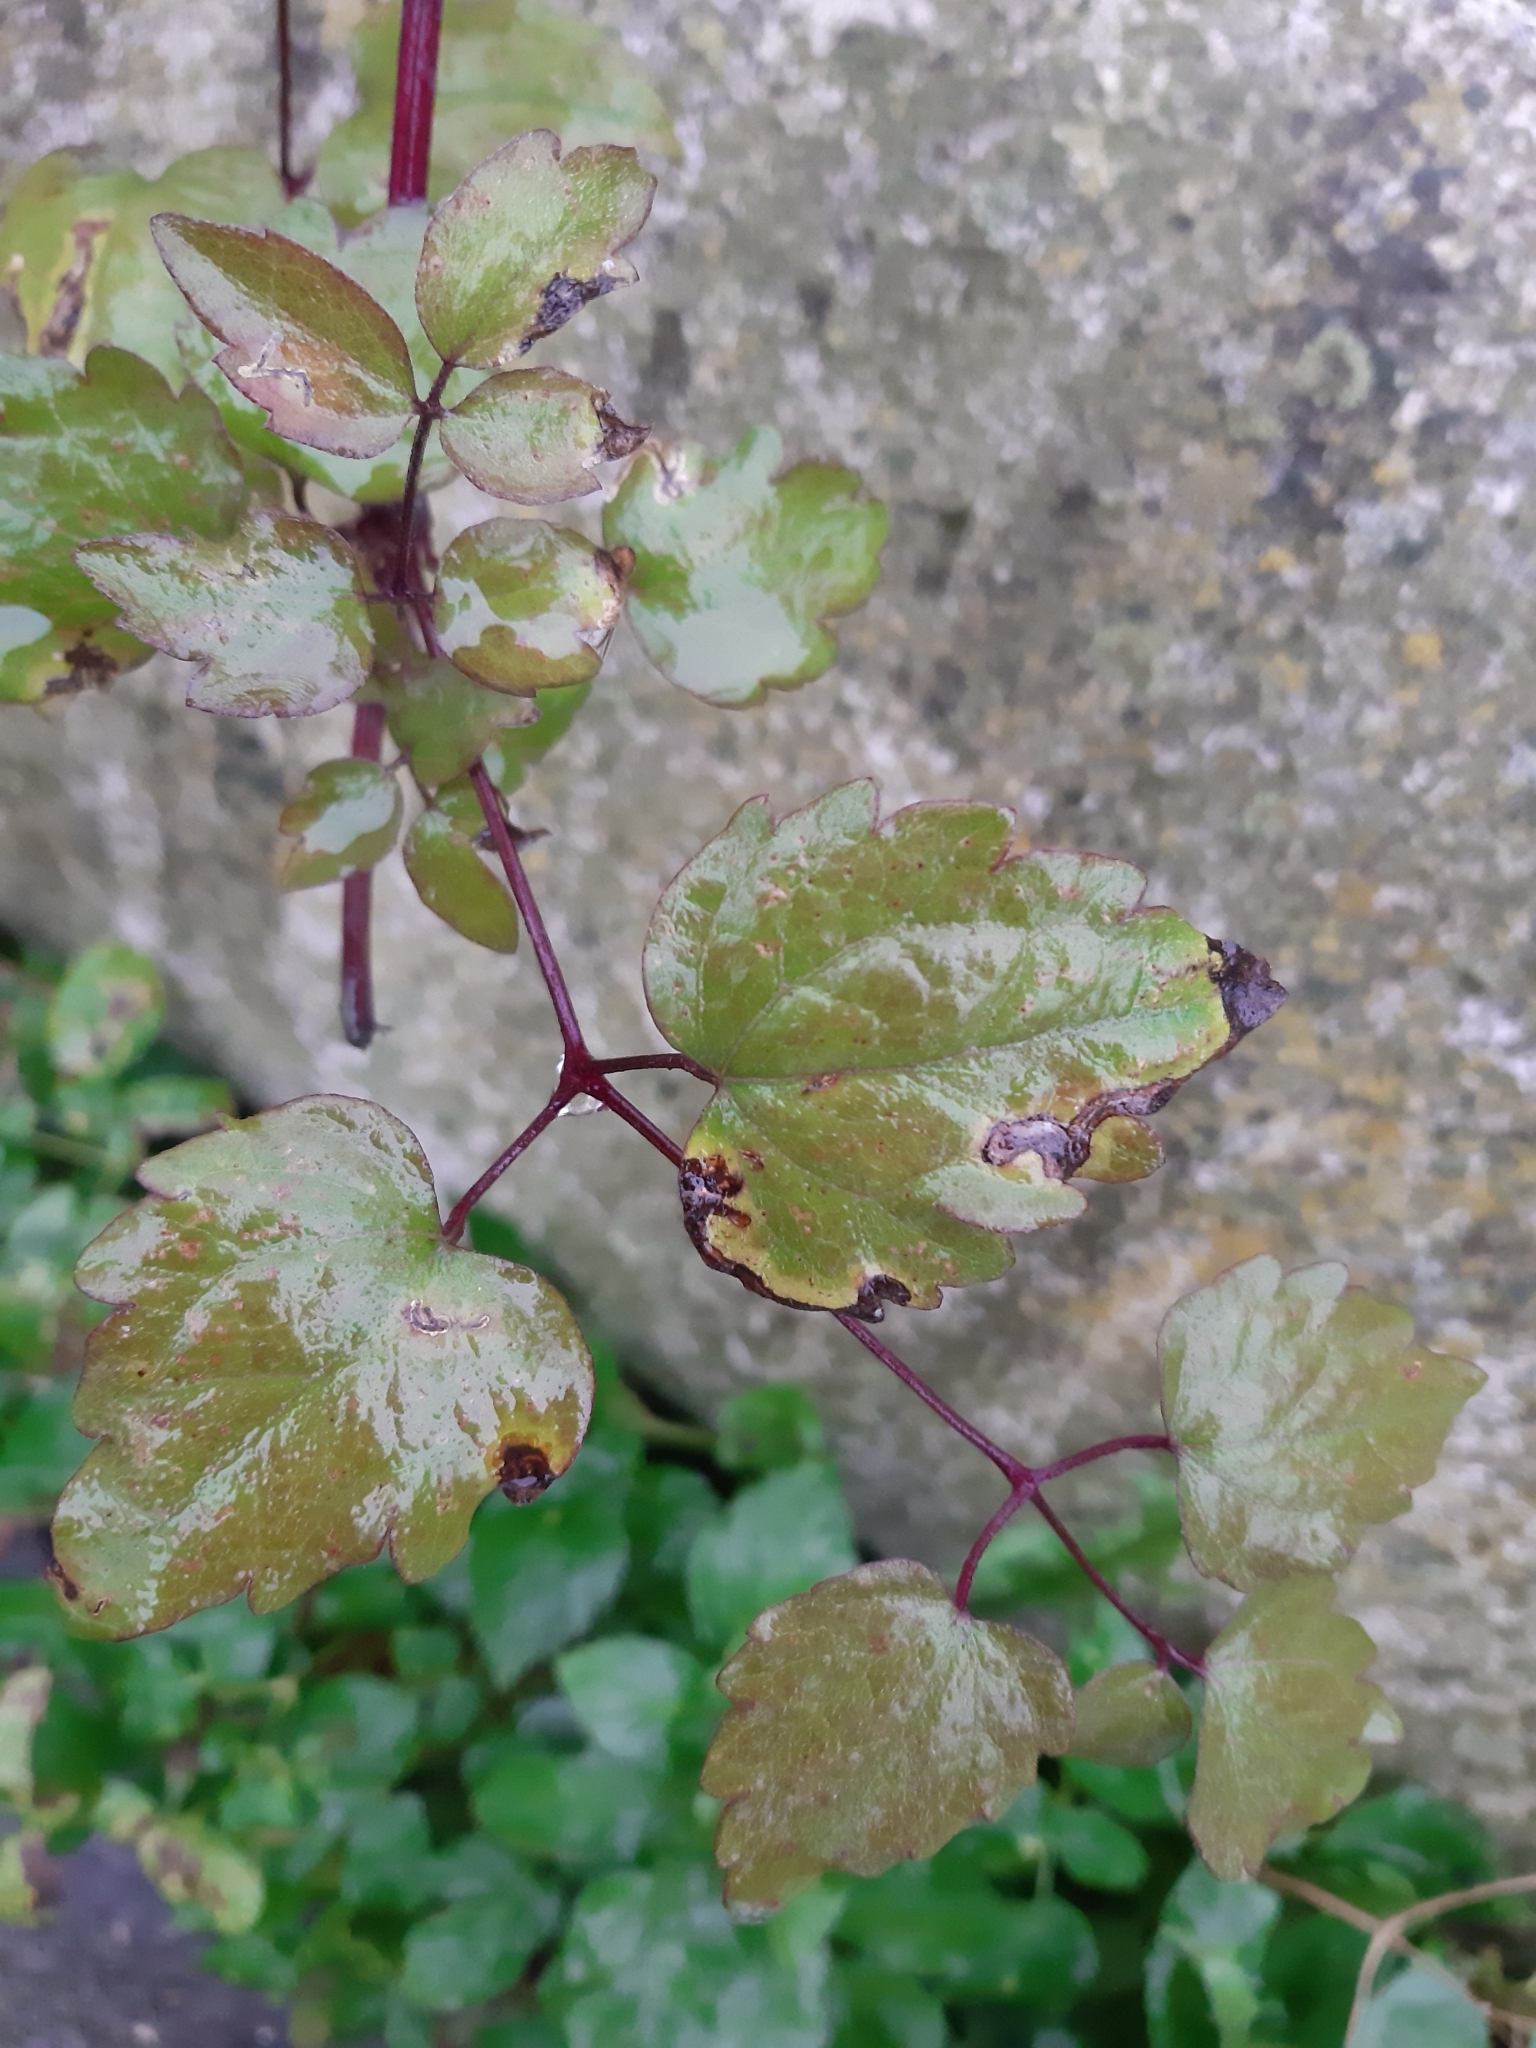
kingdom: Plantae
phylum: Tracheophyta
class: Magnoliopsida
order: Ranunculales
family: Ranunculaceae
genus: Clematis
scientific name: Clematis vitalba
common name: Evergreen clematis
